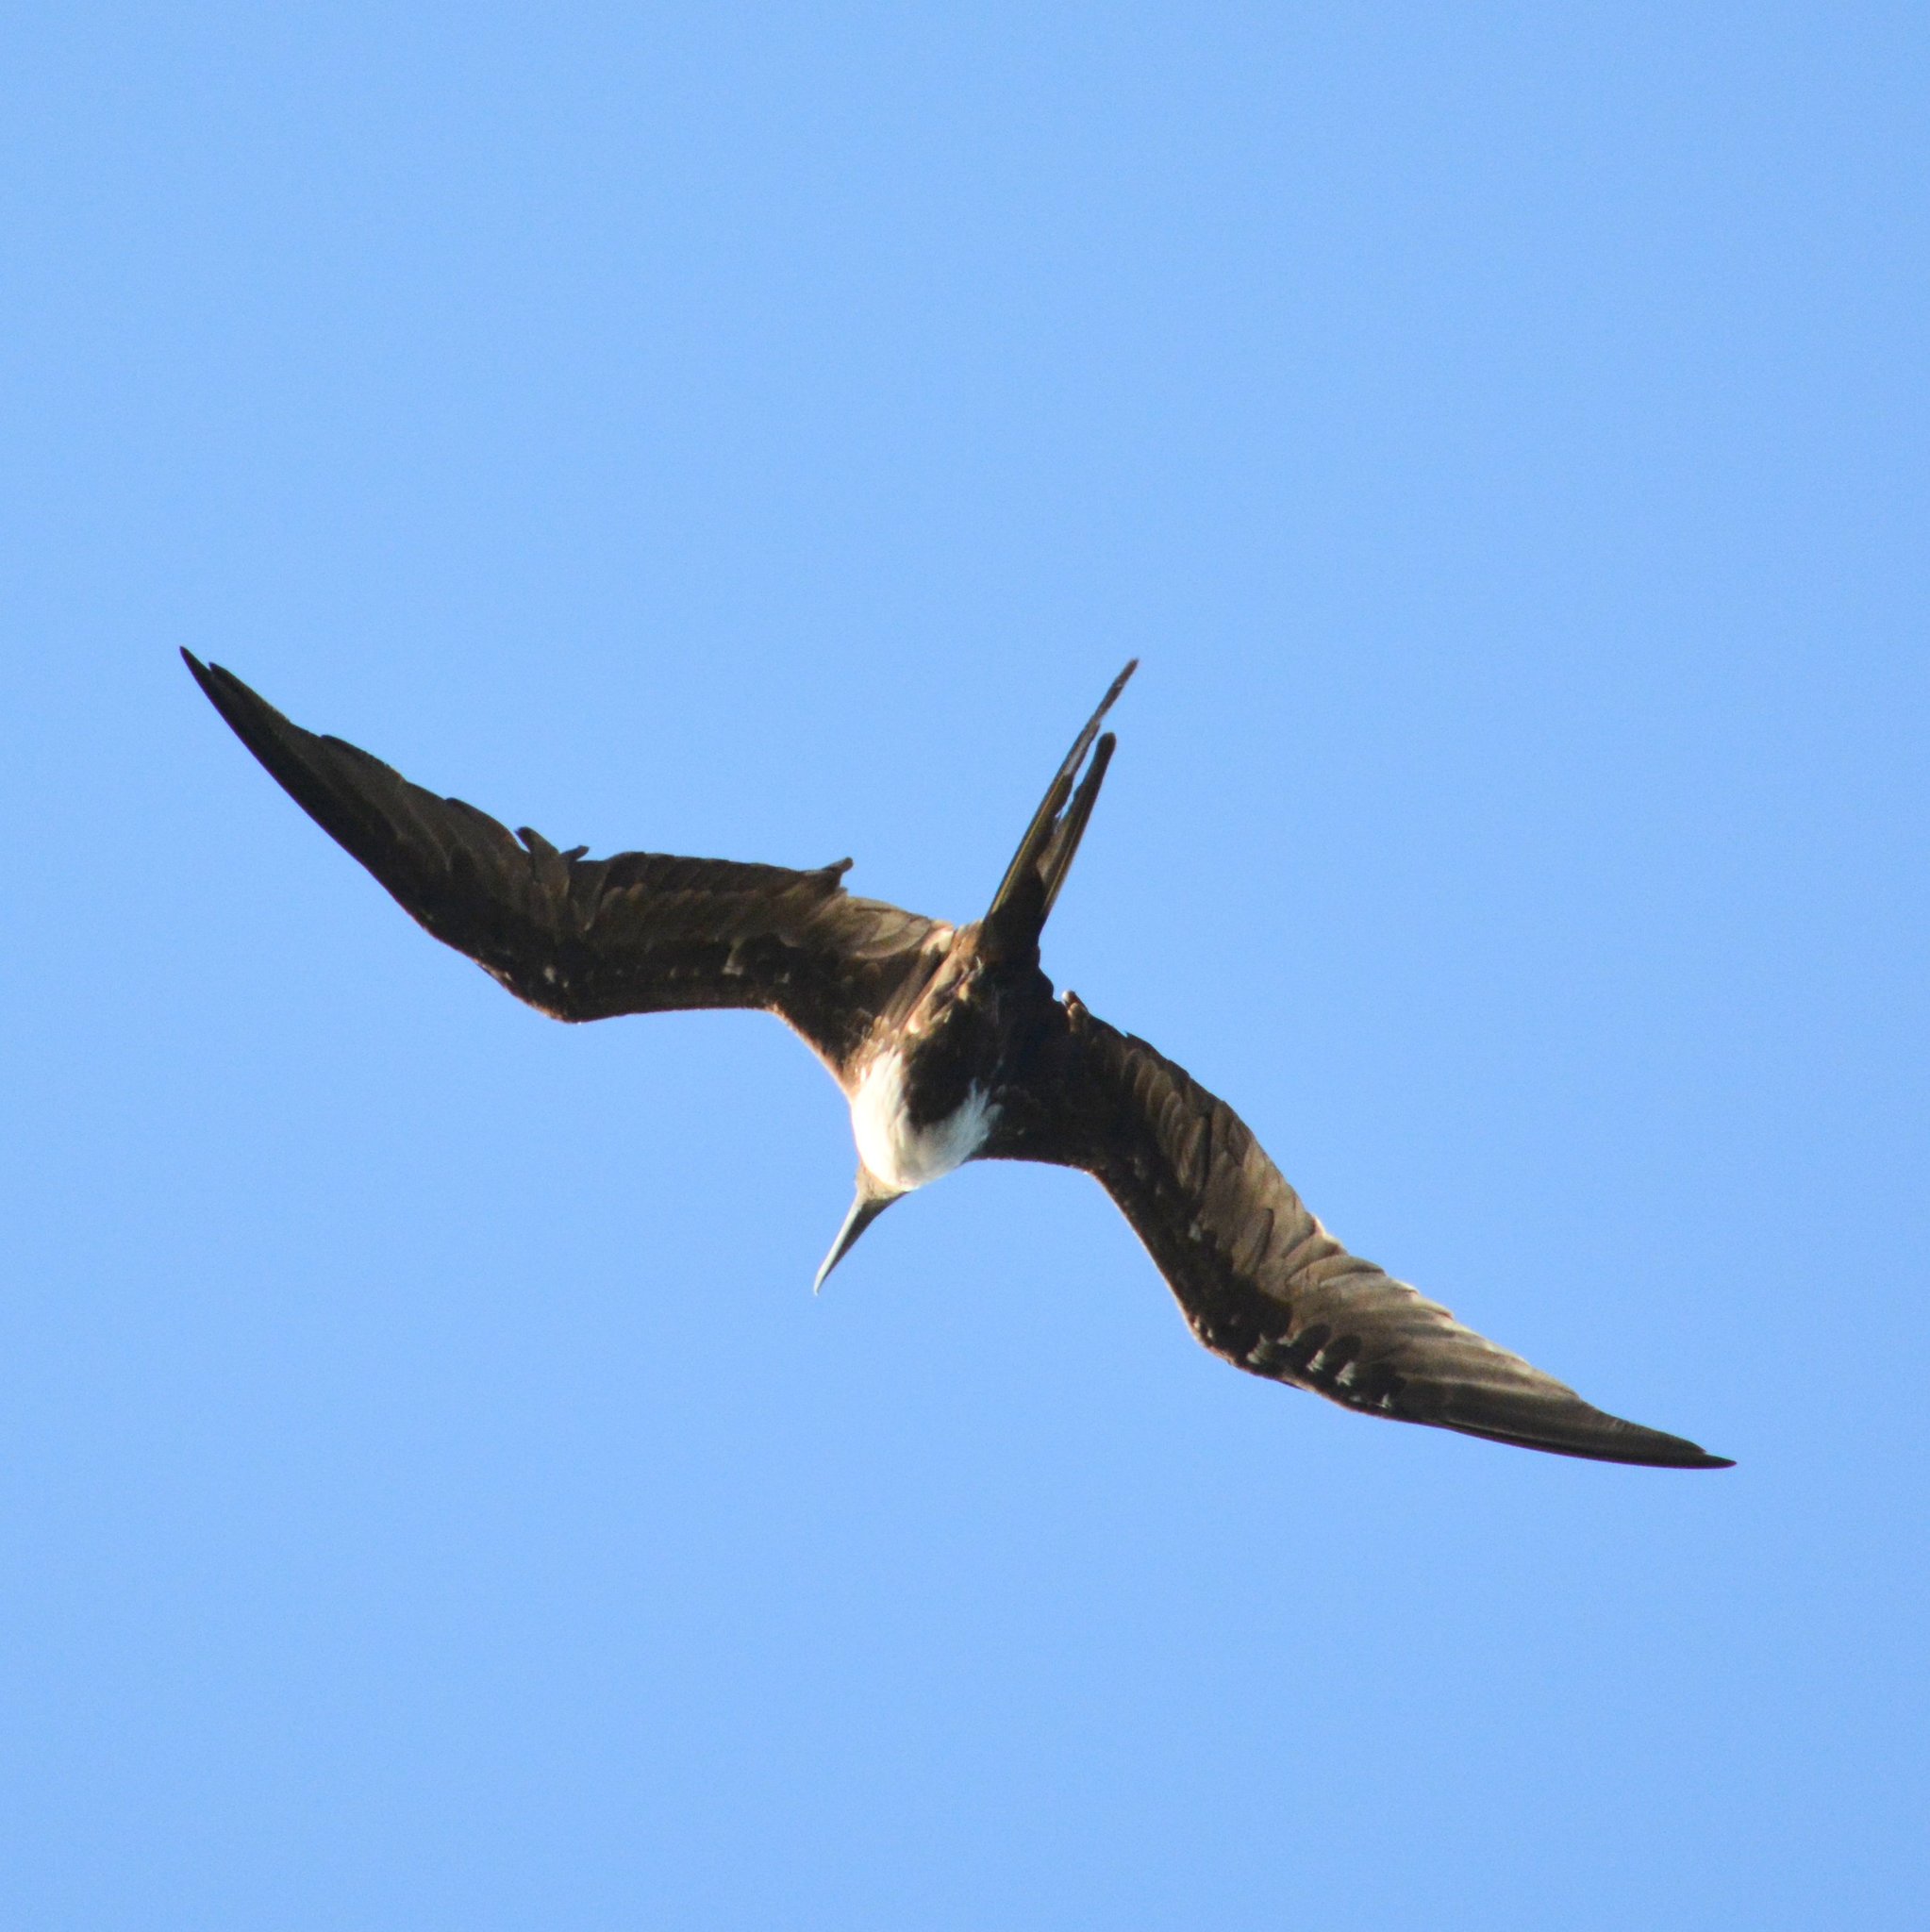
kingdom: Animalia
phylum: Chordata
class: Aves
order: Suliformes
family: Fregatidae
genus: Fregata
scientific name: Fregata magnificens
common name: Magnificent frigatebird
